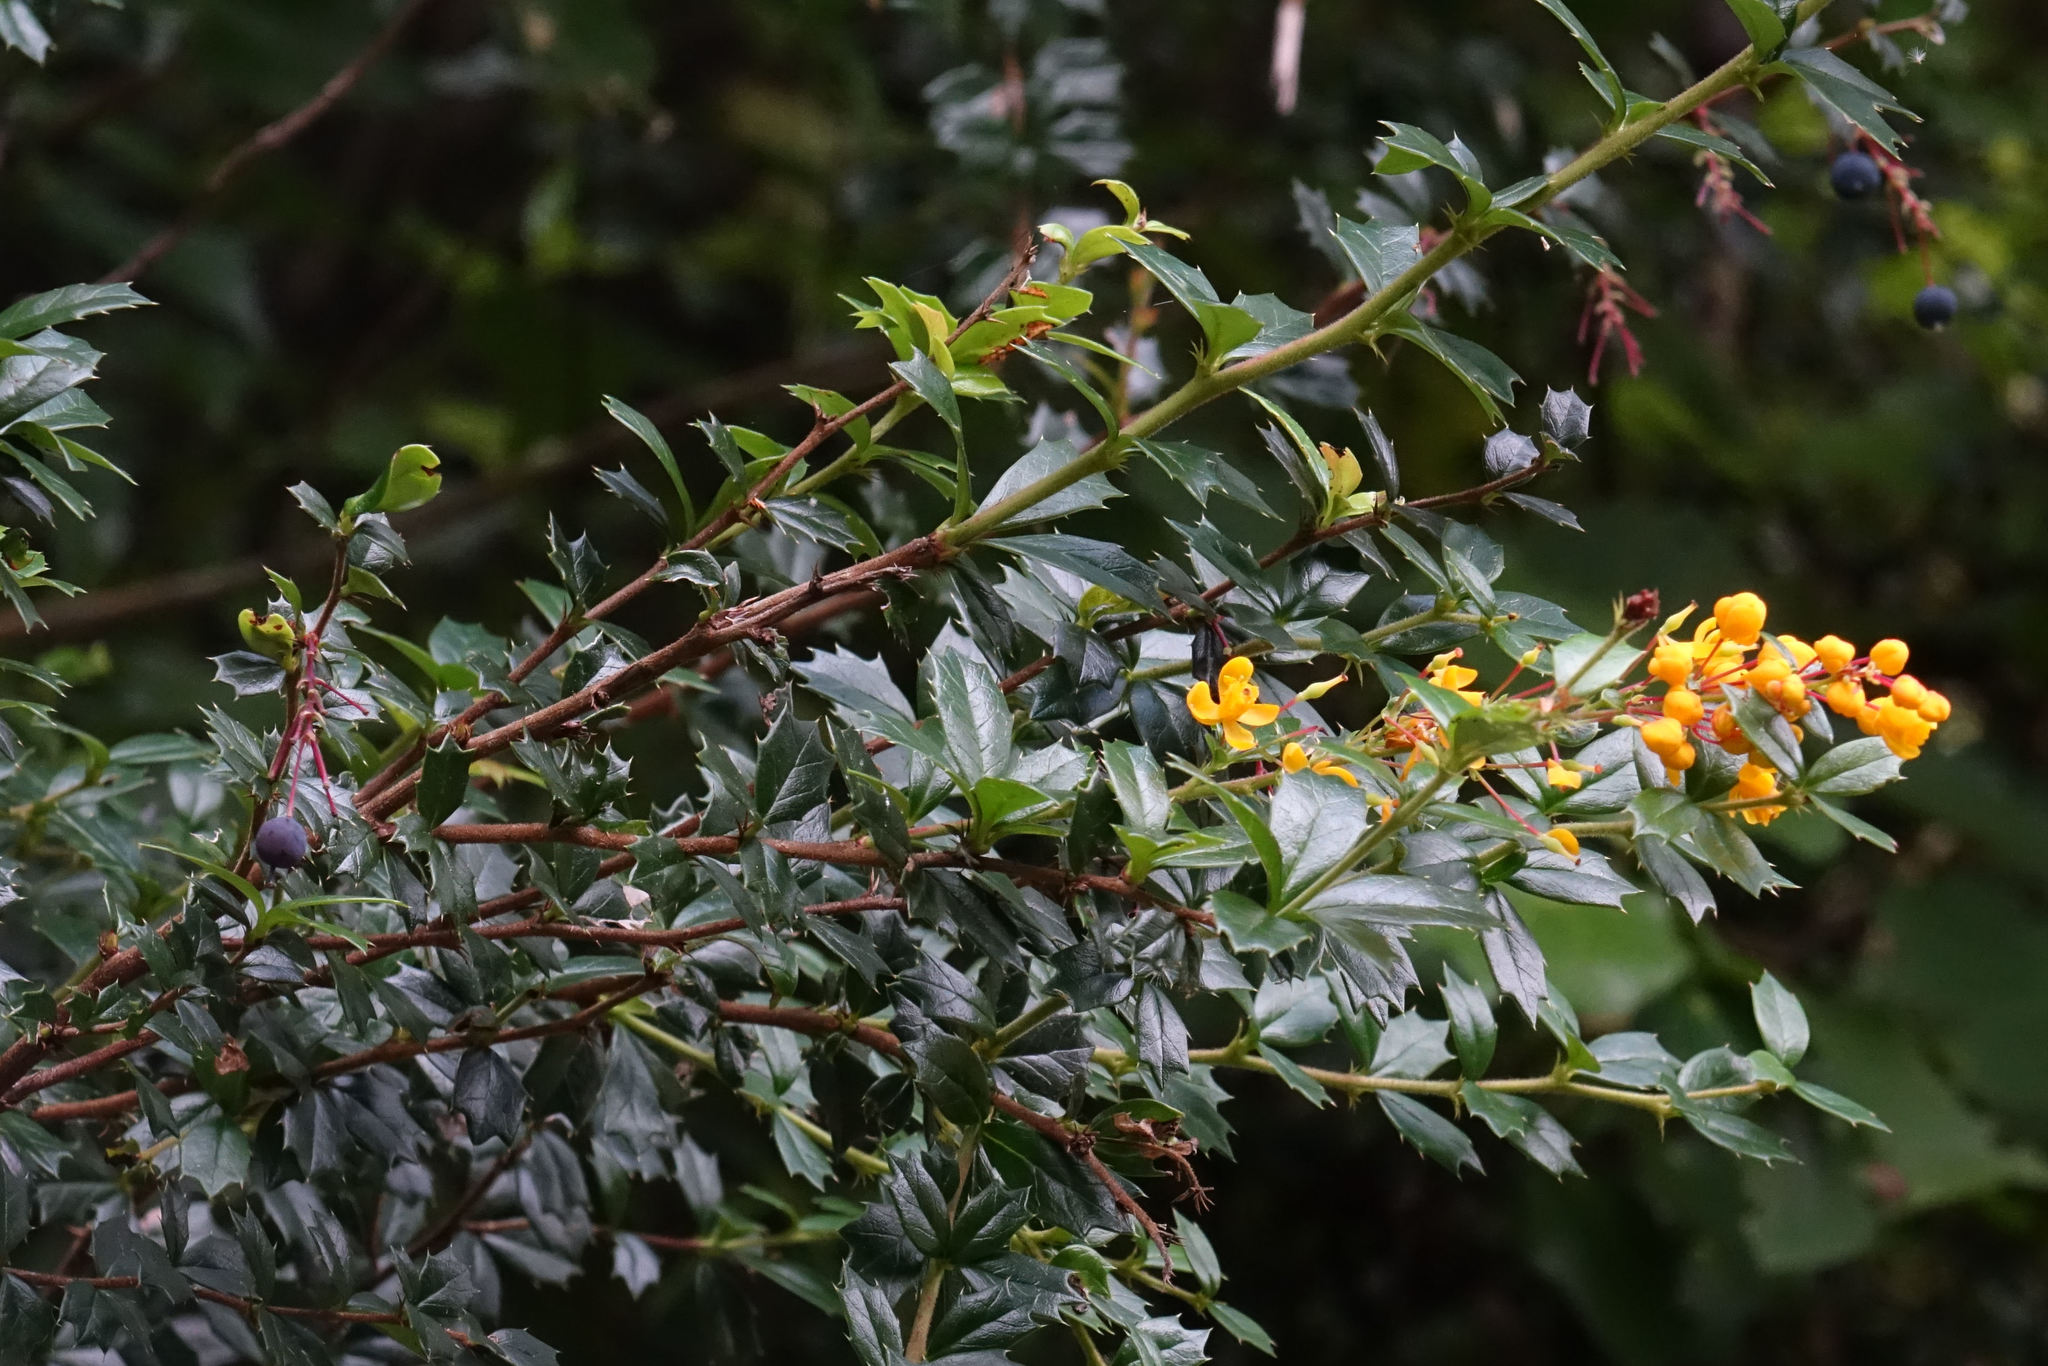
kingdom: Plantae
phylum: Tracheophyta
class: Magnoliopsida
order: Ranunculales
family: Berberidaceae
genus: Berberis
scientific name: Berberis darwinii
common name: Darwin's barberry
